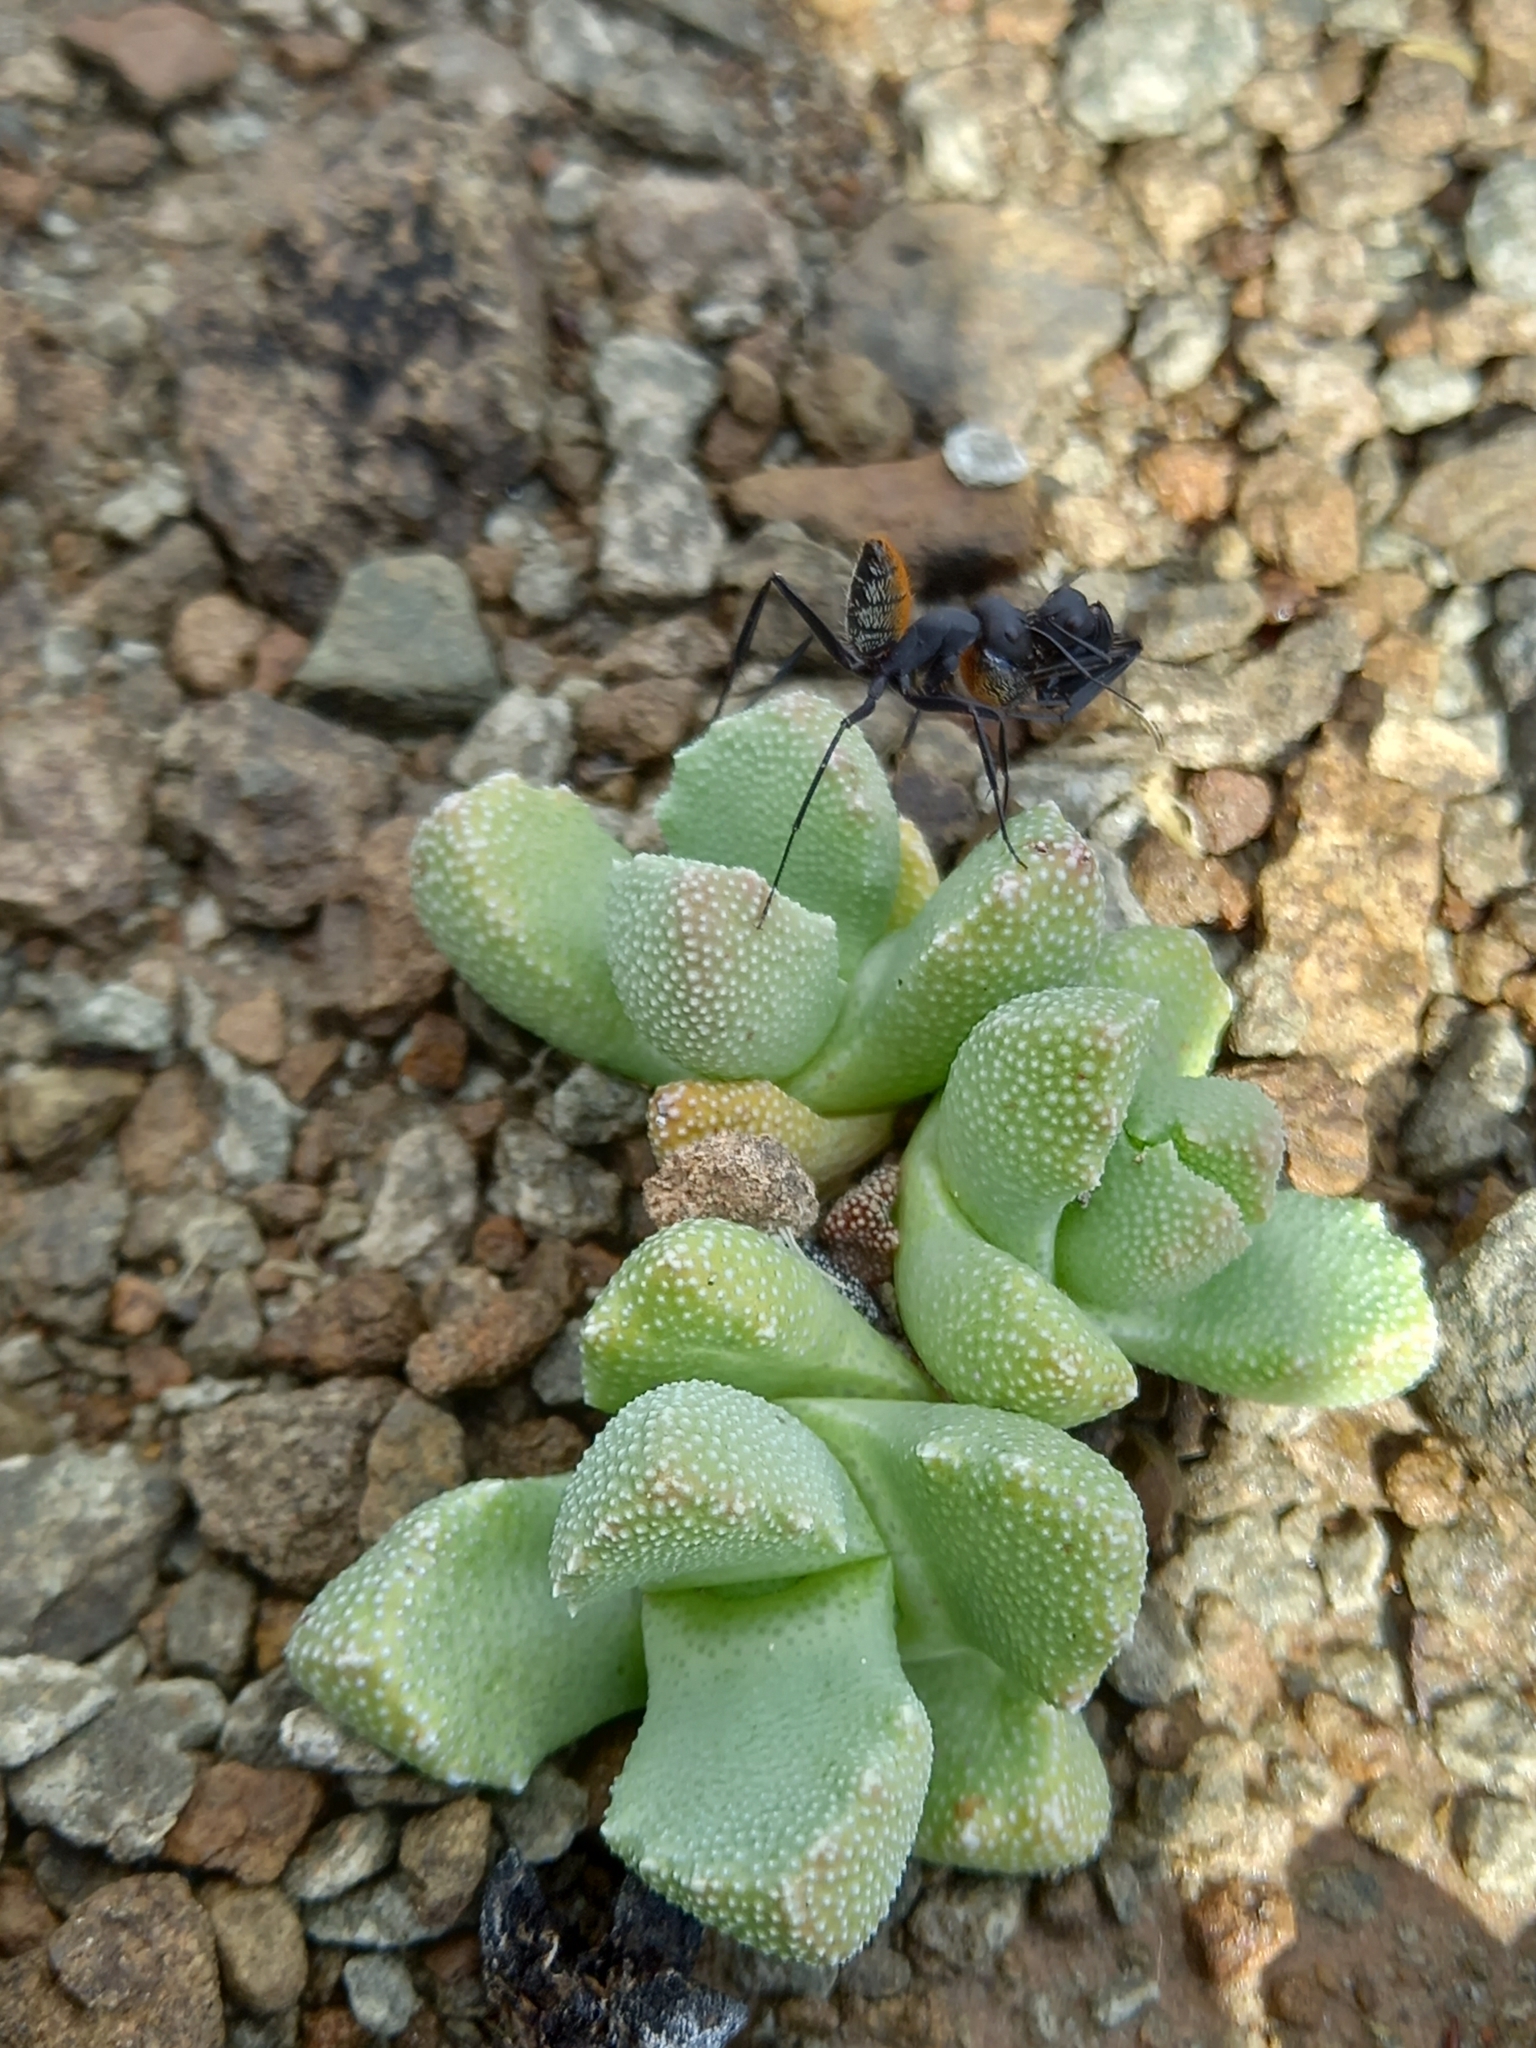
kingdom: Animalia
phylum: Arthropoda
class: Insecta
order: Hymenoptera
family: Formicidae
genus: Camponotus
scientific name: Camponotus fulvopilosus
